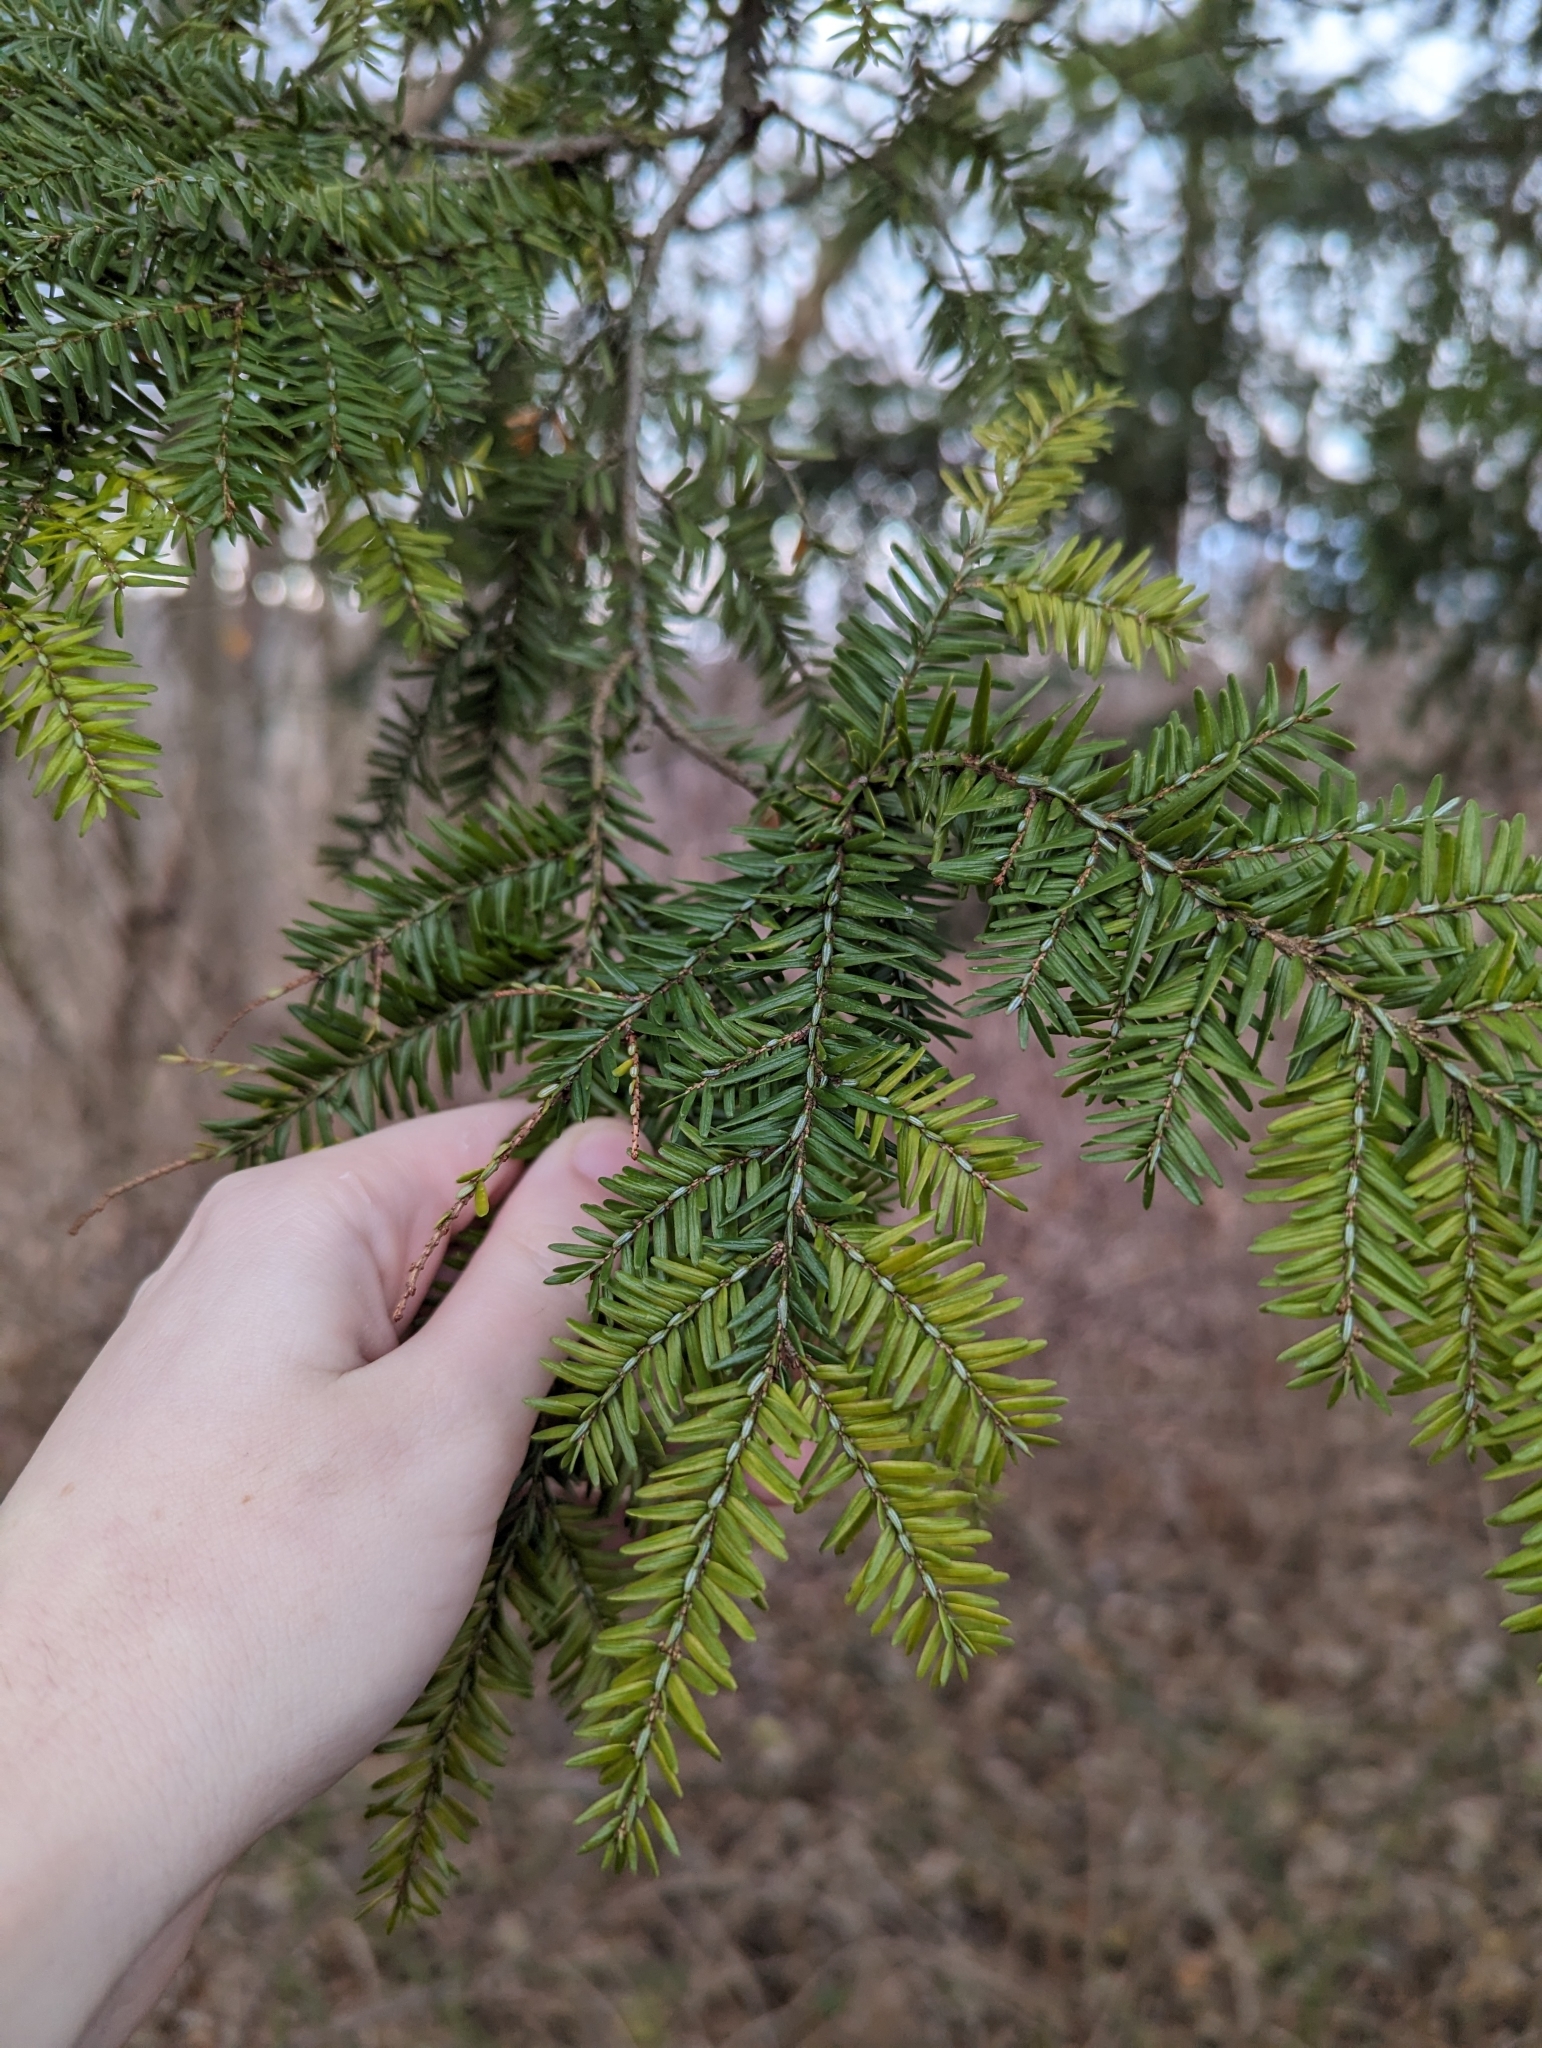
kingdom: Plantae
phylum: Tracheophyta
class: Pinopsida
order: Pinales
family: Pinaceae
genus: Tsuga
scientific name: Tsuga canadensis
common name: Eastern hemlock
